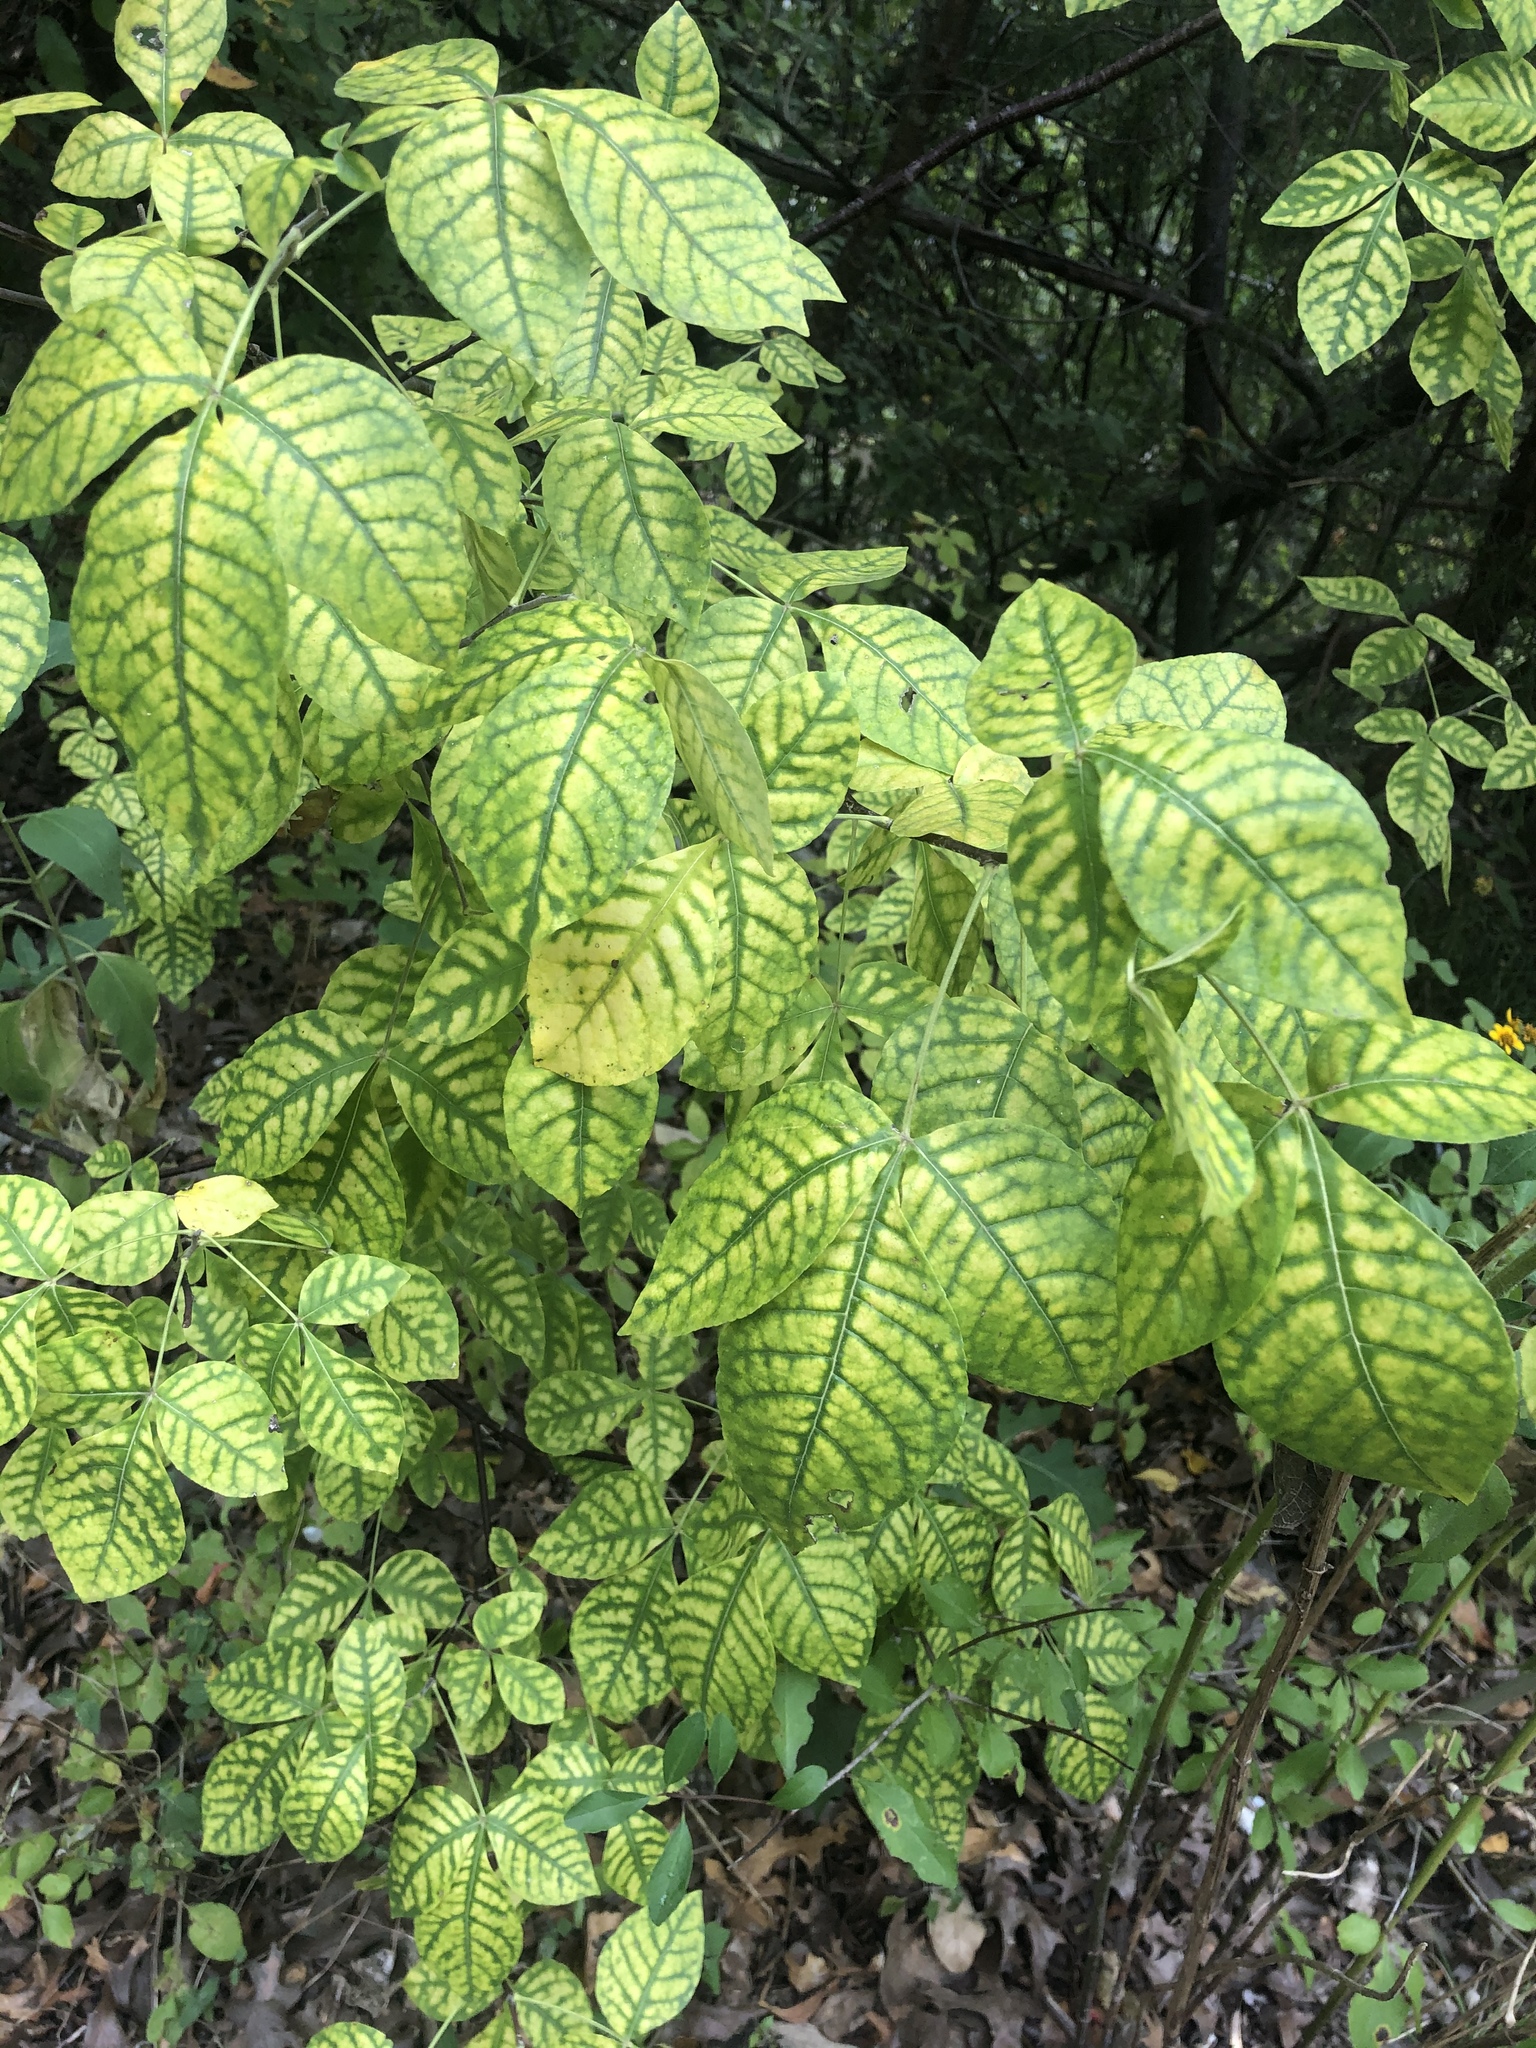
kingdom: Plantae
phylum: Tracheophyta
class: Magnoliopsida
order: Sapindales
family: Rutaceae
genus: Ptelea
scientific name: Ptelea trifoliata
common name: Common hop-tree
